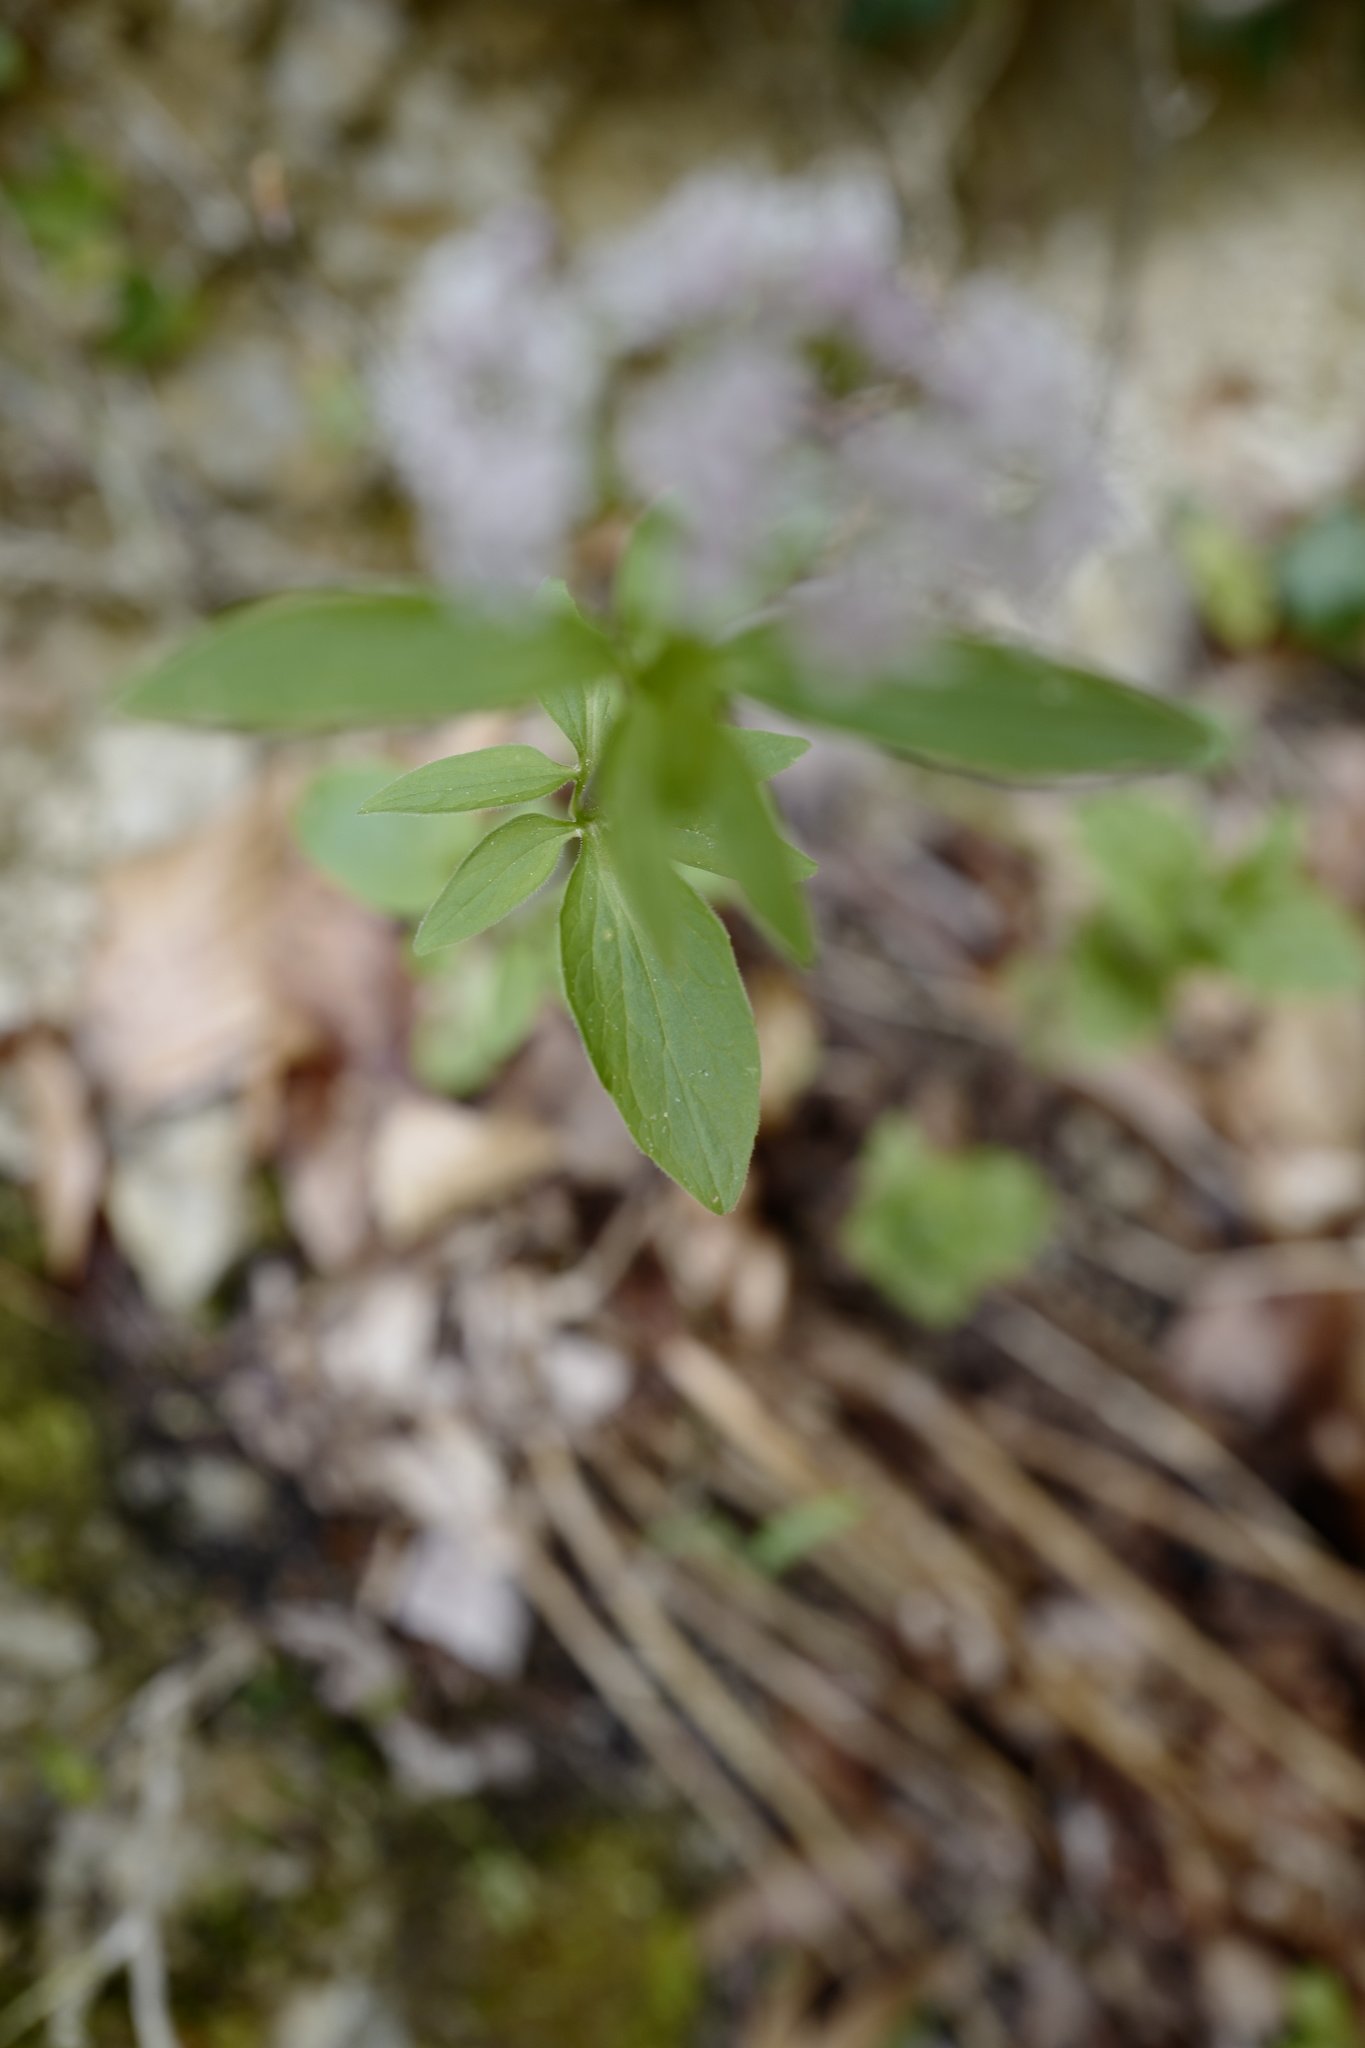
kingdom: Plantae
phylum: Tracheophyta
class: Magnoliopsida
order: Dipsacales
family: Caprifoliaceae
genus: Valeriana
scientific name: Valeriana tripteris
